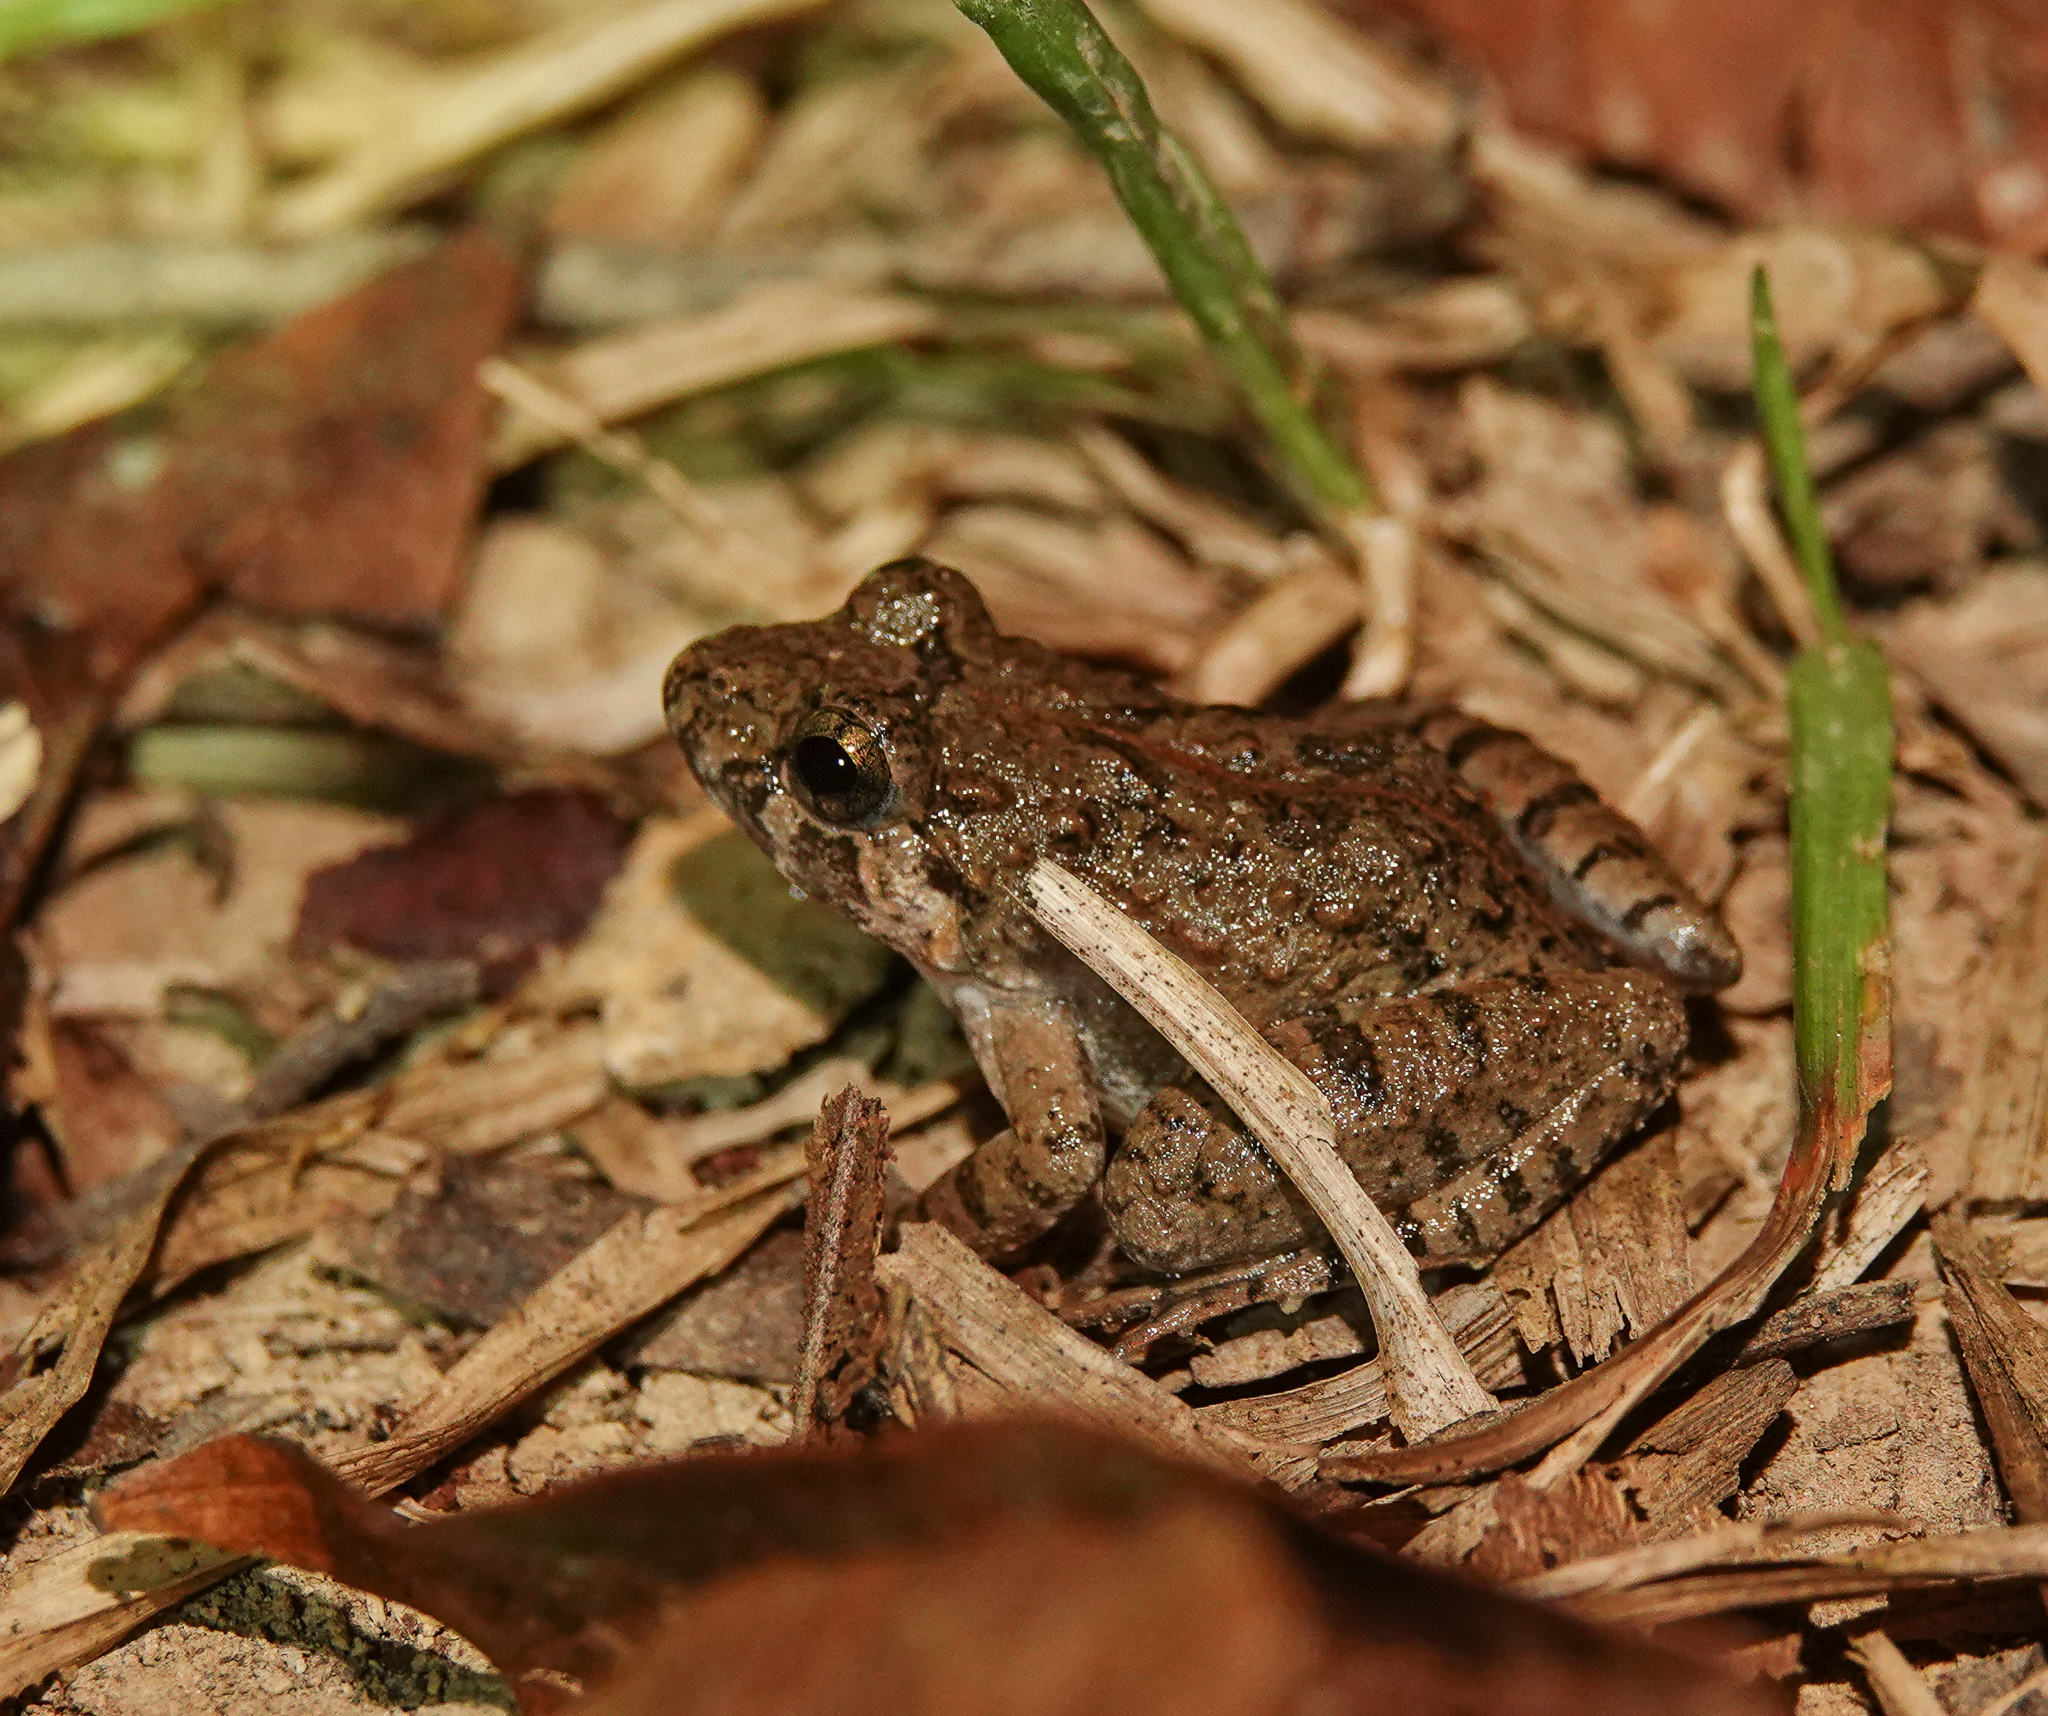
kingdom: Animalia
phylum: Chordata
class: Amphibia
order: Anura
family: Dicroglossidae
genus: Fejervarya
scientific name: Fejervarya limnocharis
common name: Asian grass frog/common pond frog/field frog/grass frog/indian rice frog
